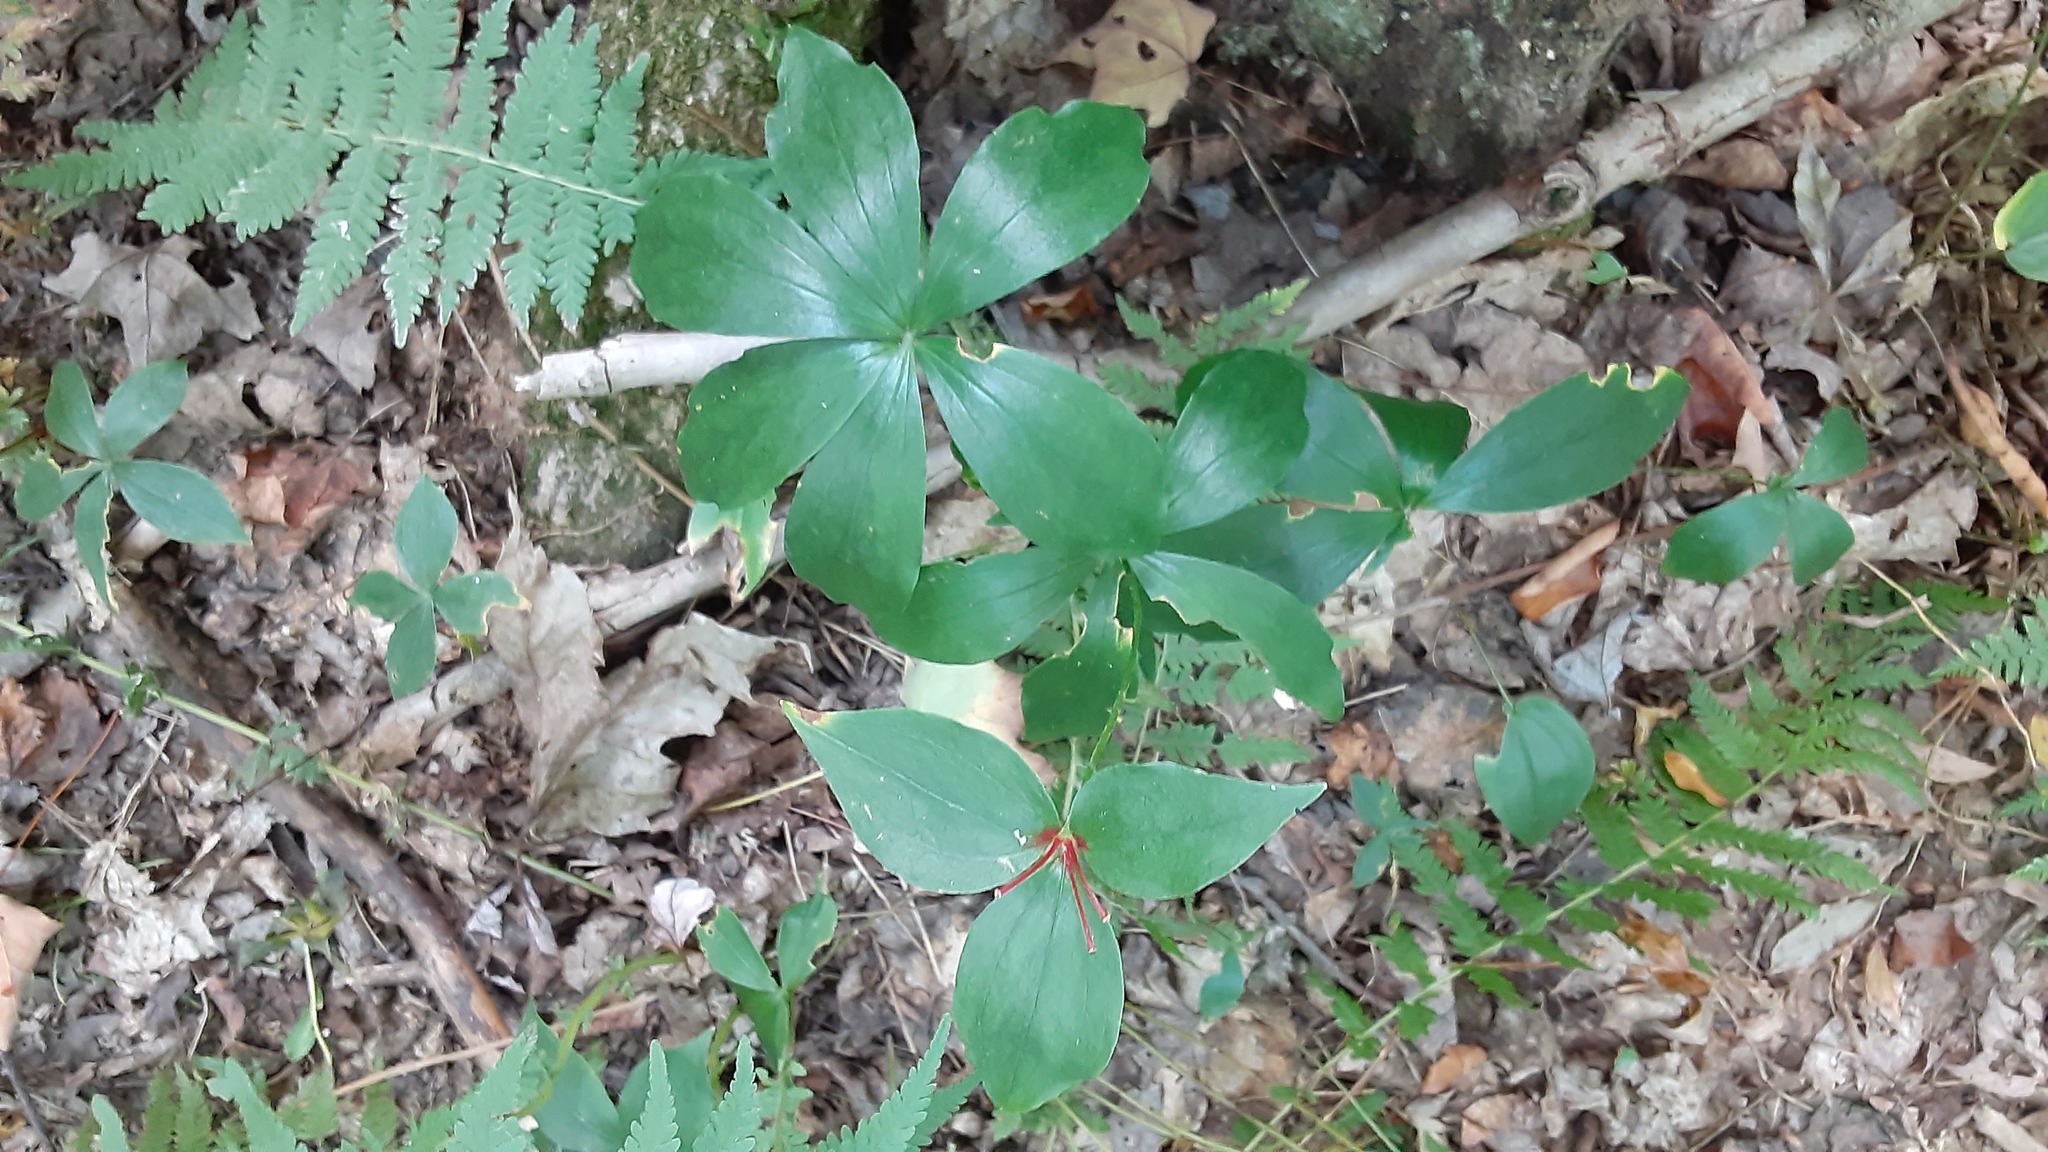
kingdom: Plantae
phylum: Tracheophyta
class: Liliopsida
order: Liliales
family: Liliaceae
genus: Medeola
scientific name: Medeola virginiana
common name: Indian cucumber-root
